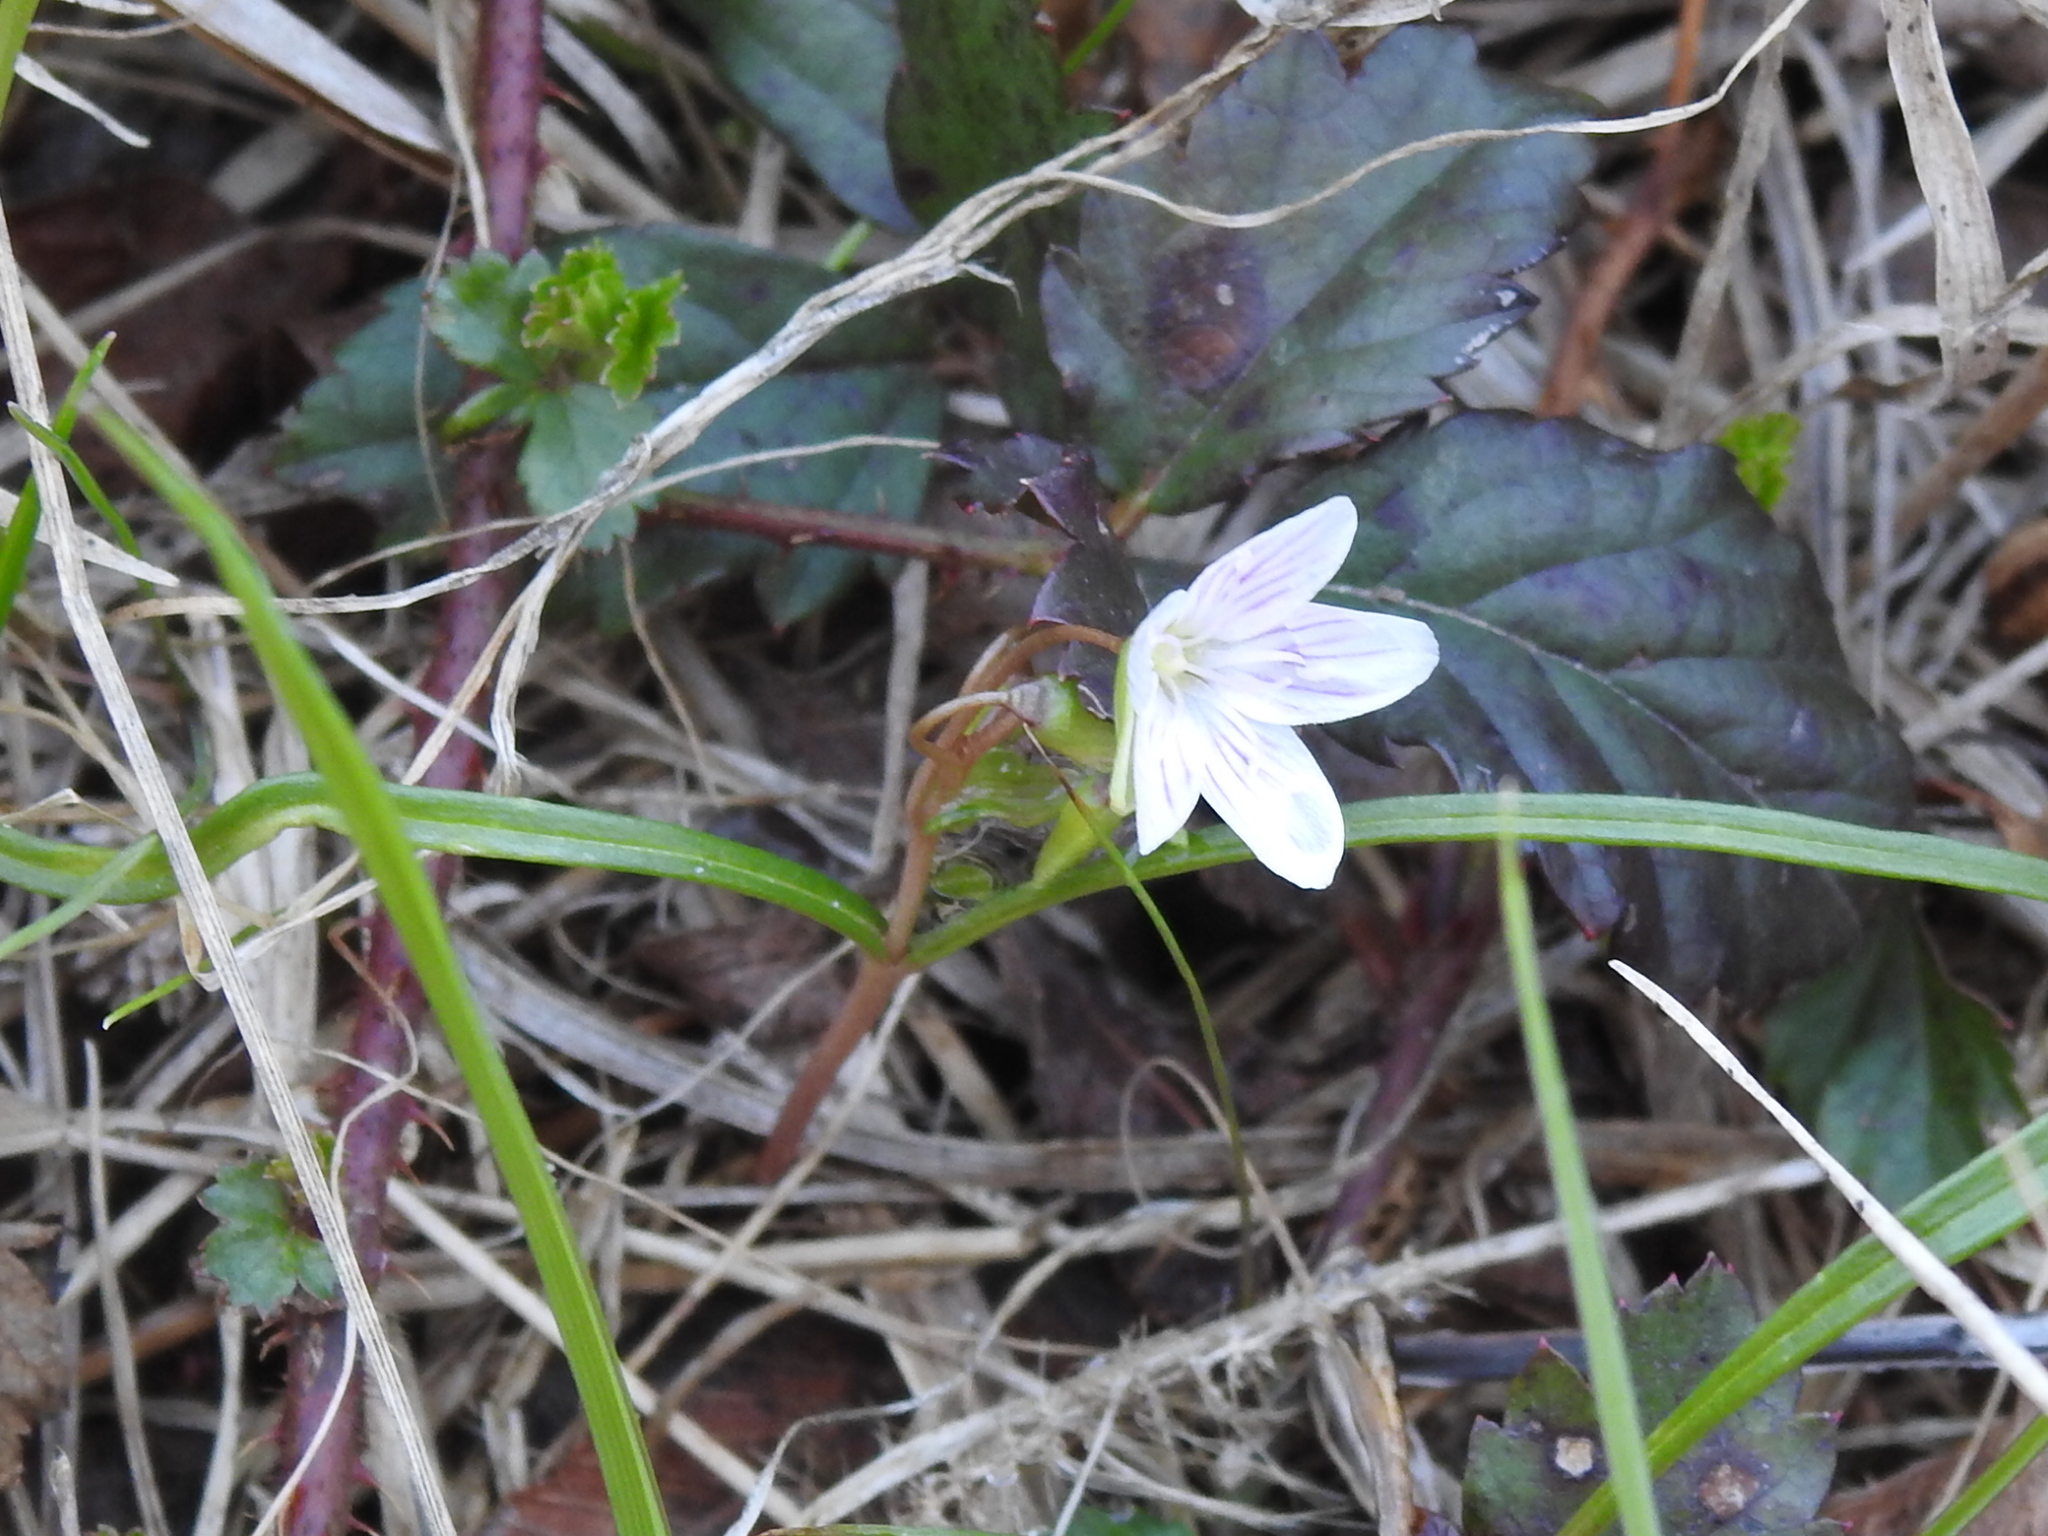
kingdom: Plantae
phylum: Tracheophyta
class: Magnoliopsida
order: Caryophyllales
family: Montiaceae
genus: Claytonia
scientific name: Claytonia virginica
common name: Virginia springbeauty
